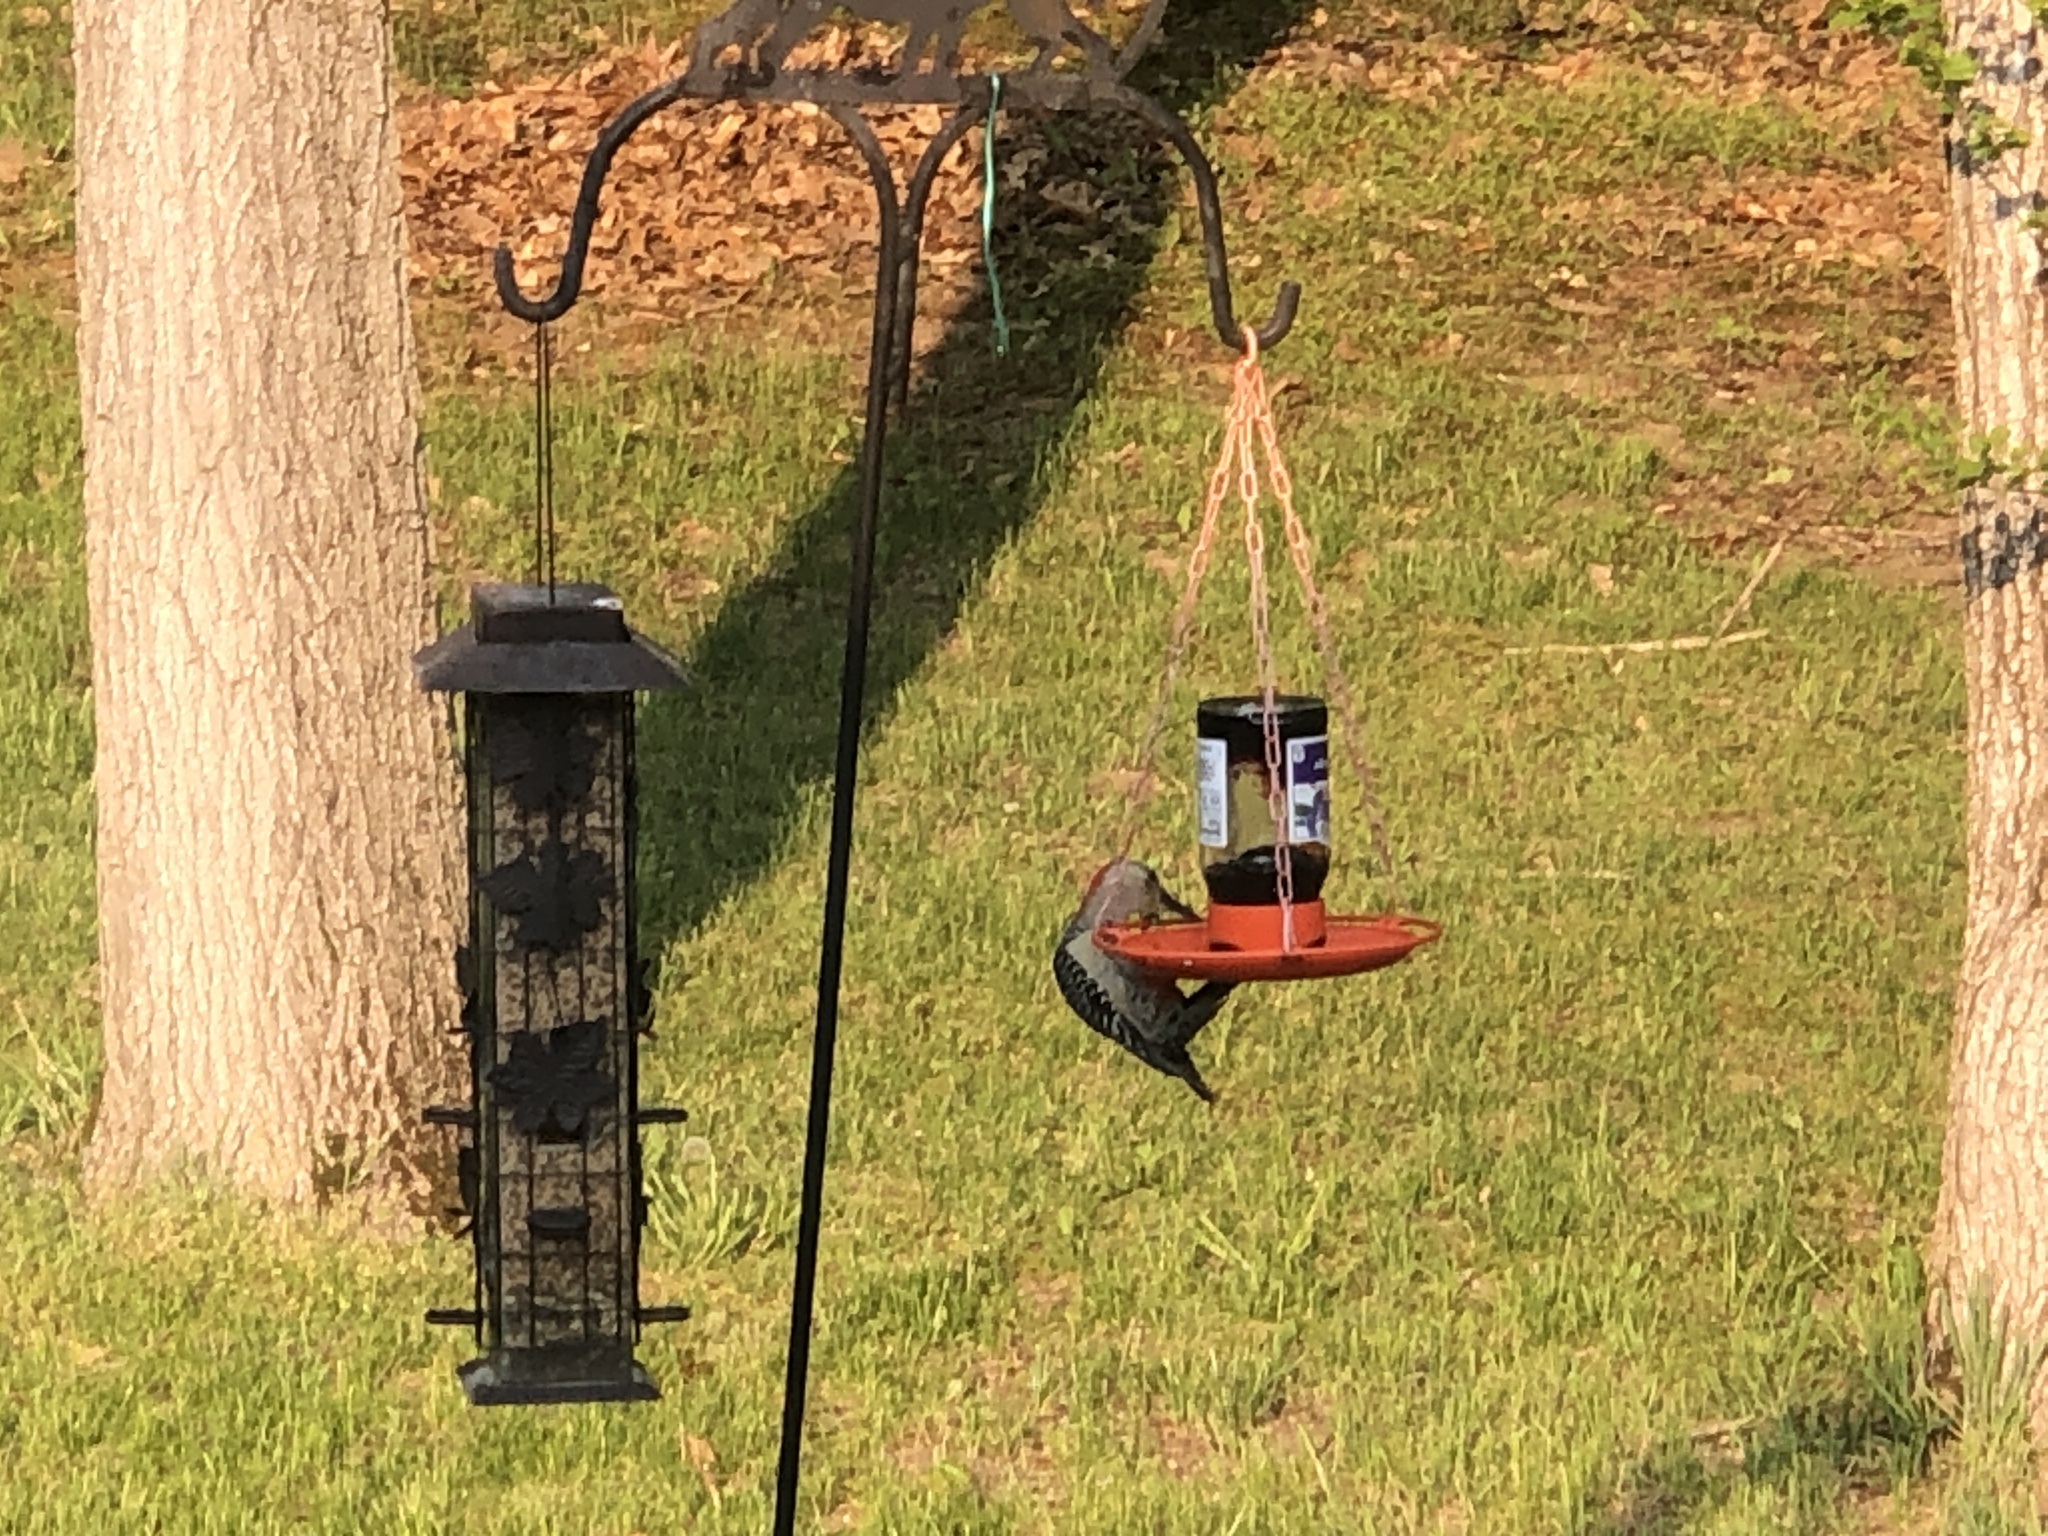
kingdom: Animalia
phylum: Chordata
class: Aves
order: Piciformes
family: Picidae
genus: Melanerpes
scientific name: Melanerpes carolinus
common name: Red-bellied woodpecker
